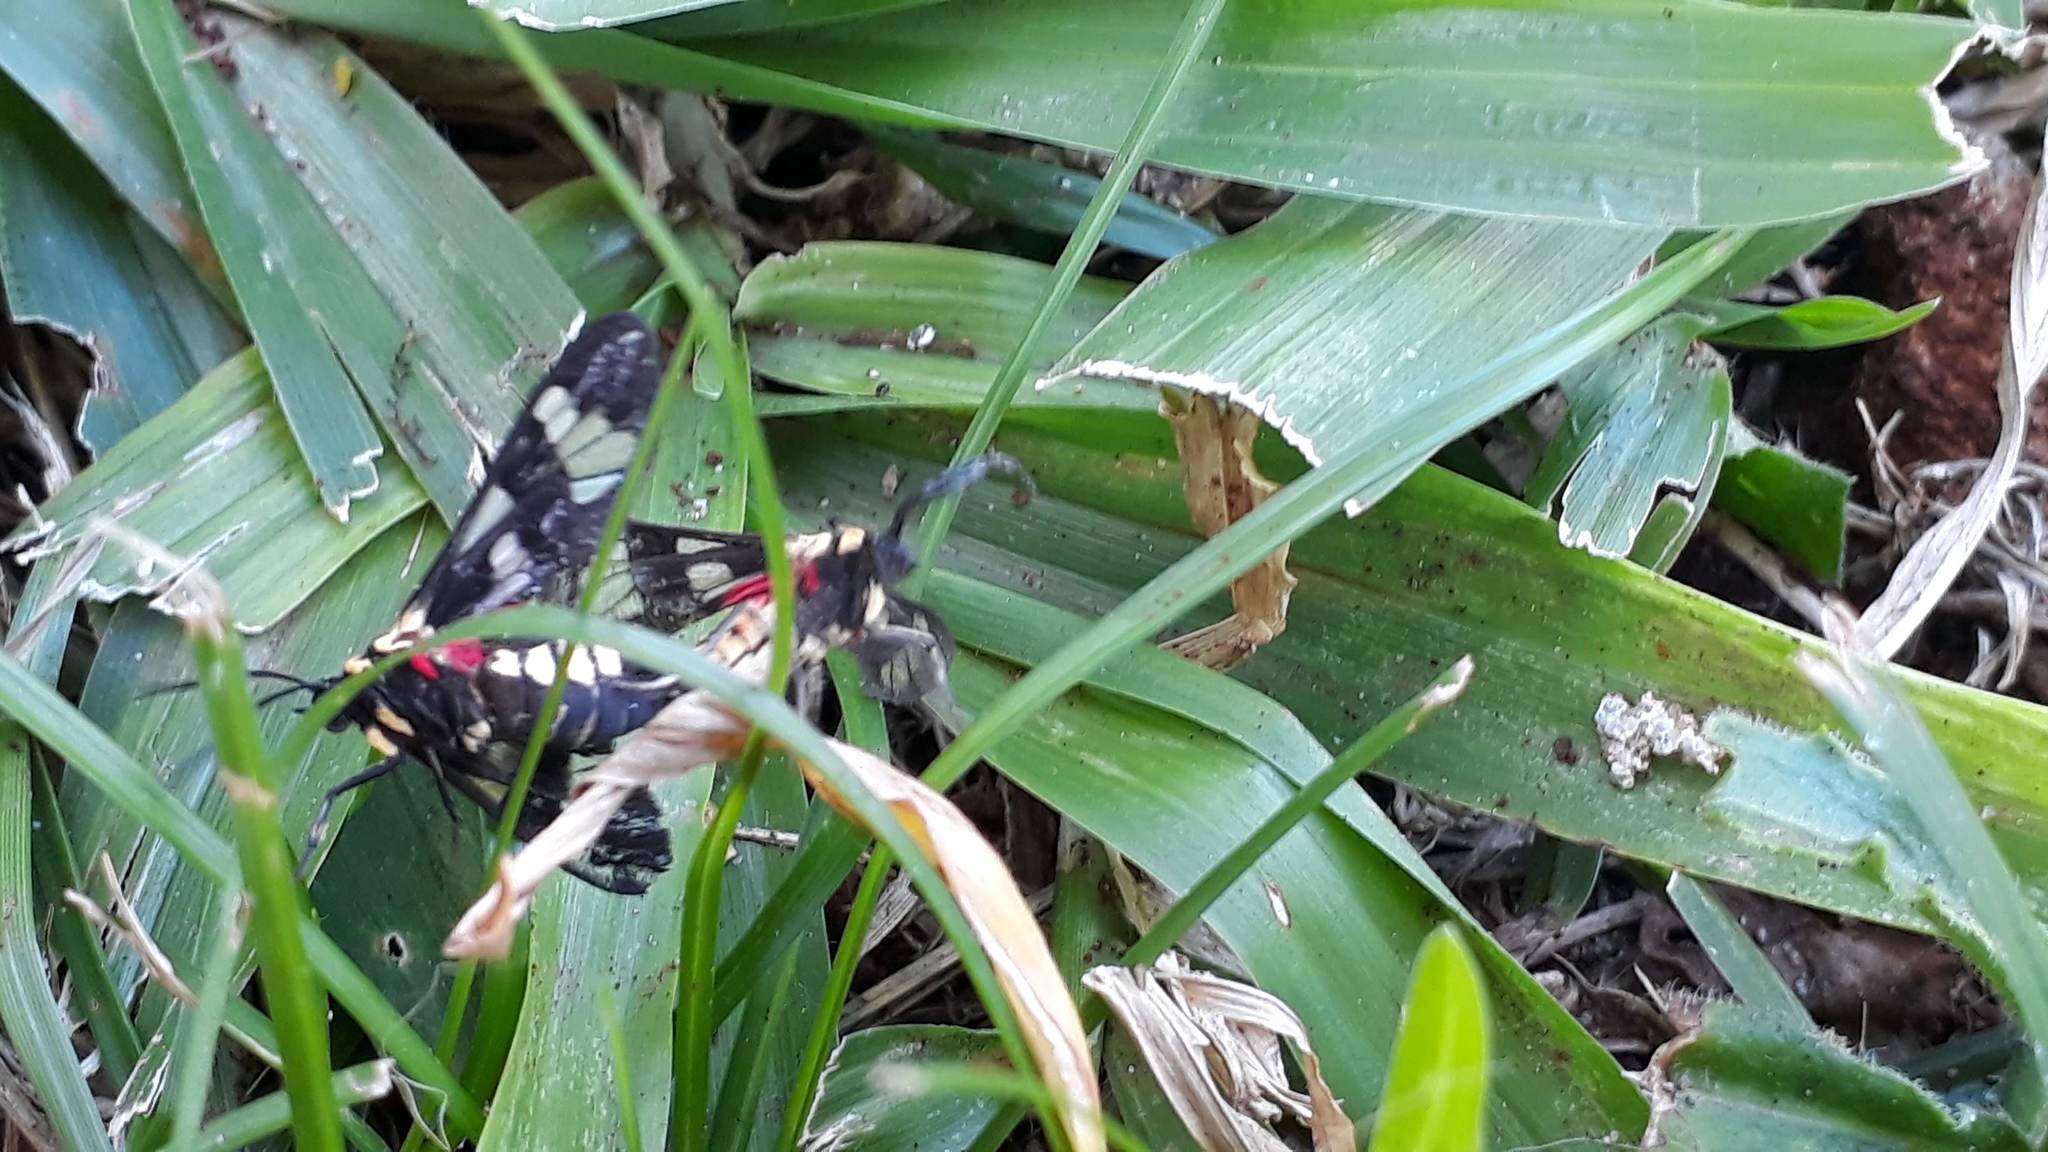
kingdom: Animalia
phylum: Arthropoda
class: Insecta
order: Lepidoptera
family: Erebidae
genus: Eurata
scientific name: Eurata hermione
